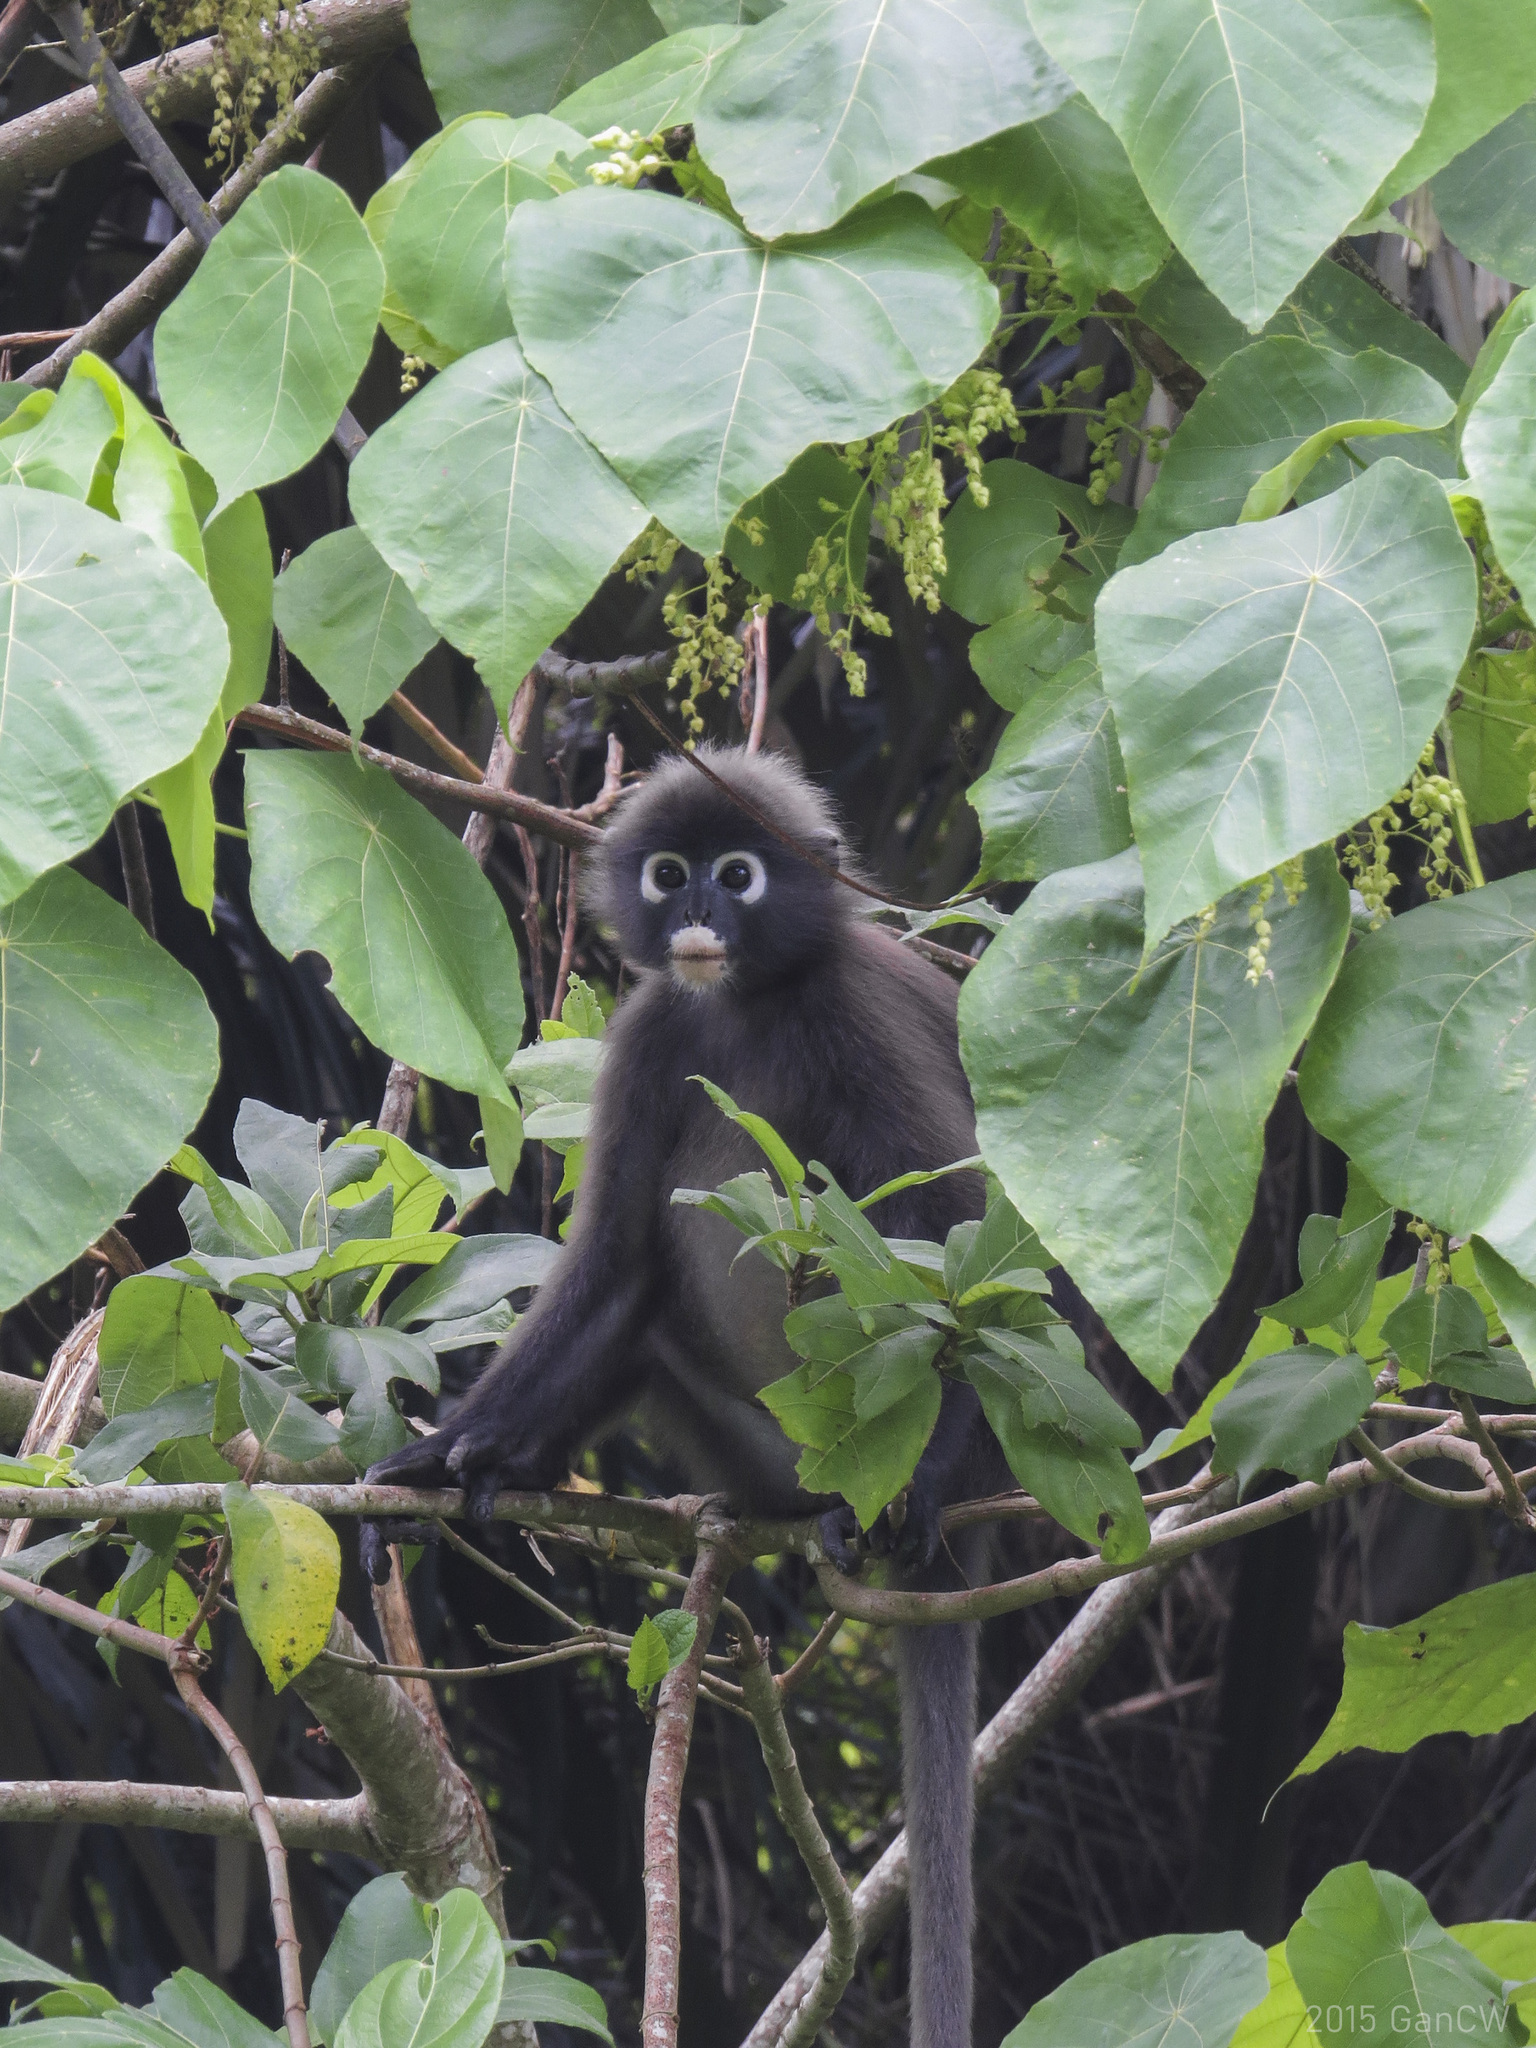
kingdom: Animalia
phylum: Chordata
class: Mammalia
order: Primates
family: Cercopithecidae
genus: Trachypithecus
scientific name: Trachypithecus obscurus
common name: Dusky leaf-monkey
